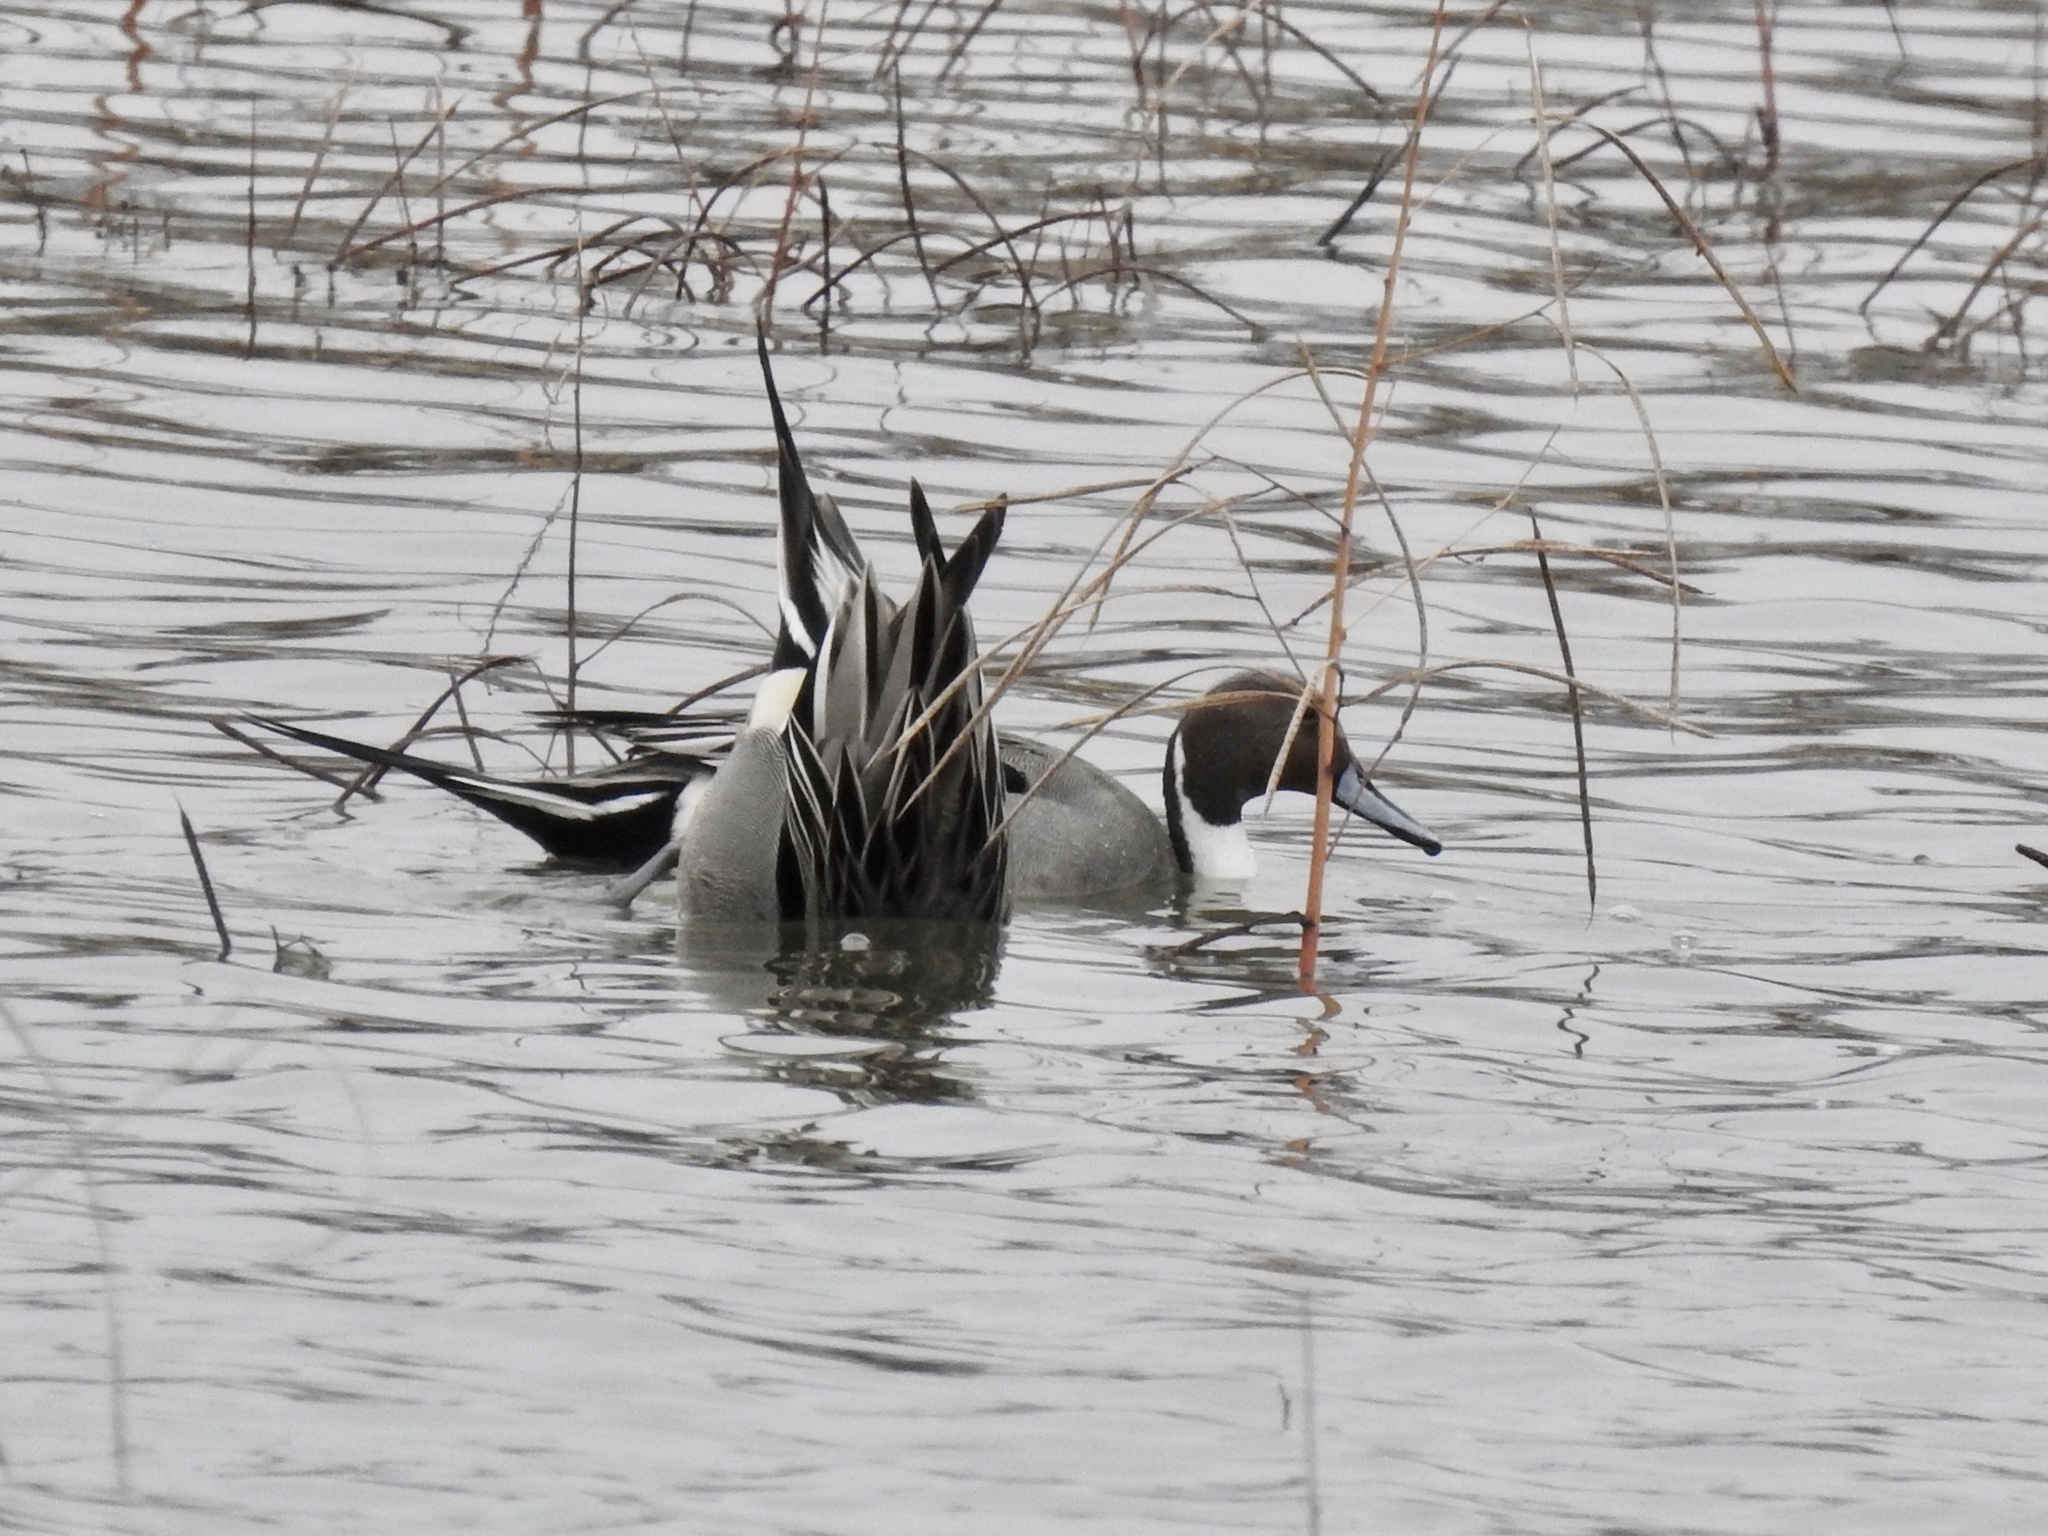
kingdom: Animalia
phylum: Chordata
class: Aves
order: Anseriformes
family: Anatidae
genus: Anas
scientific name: Anas acuta
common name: Northern pintail
